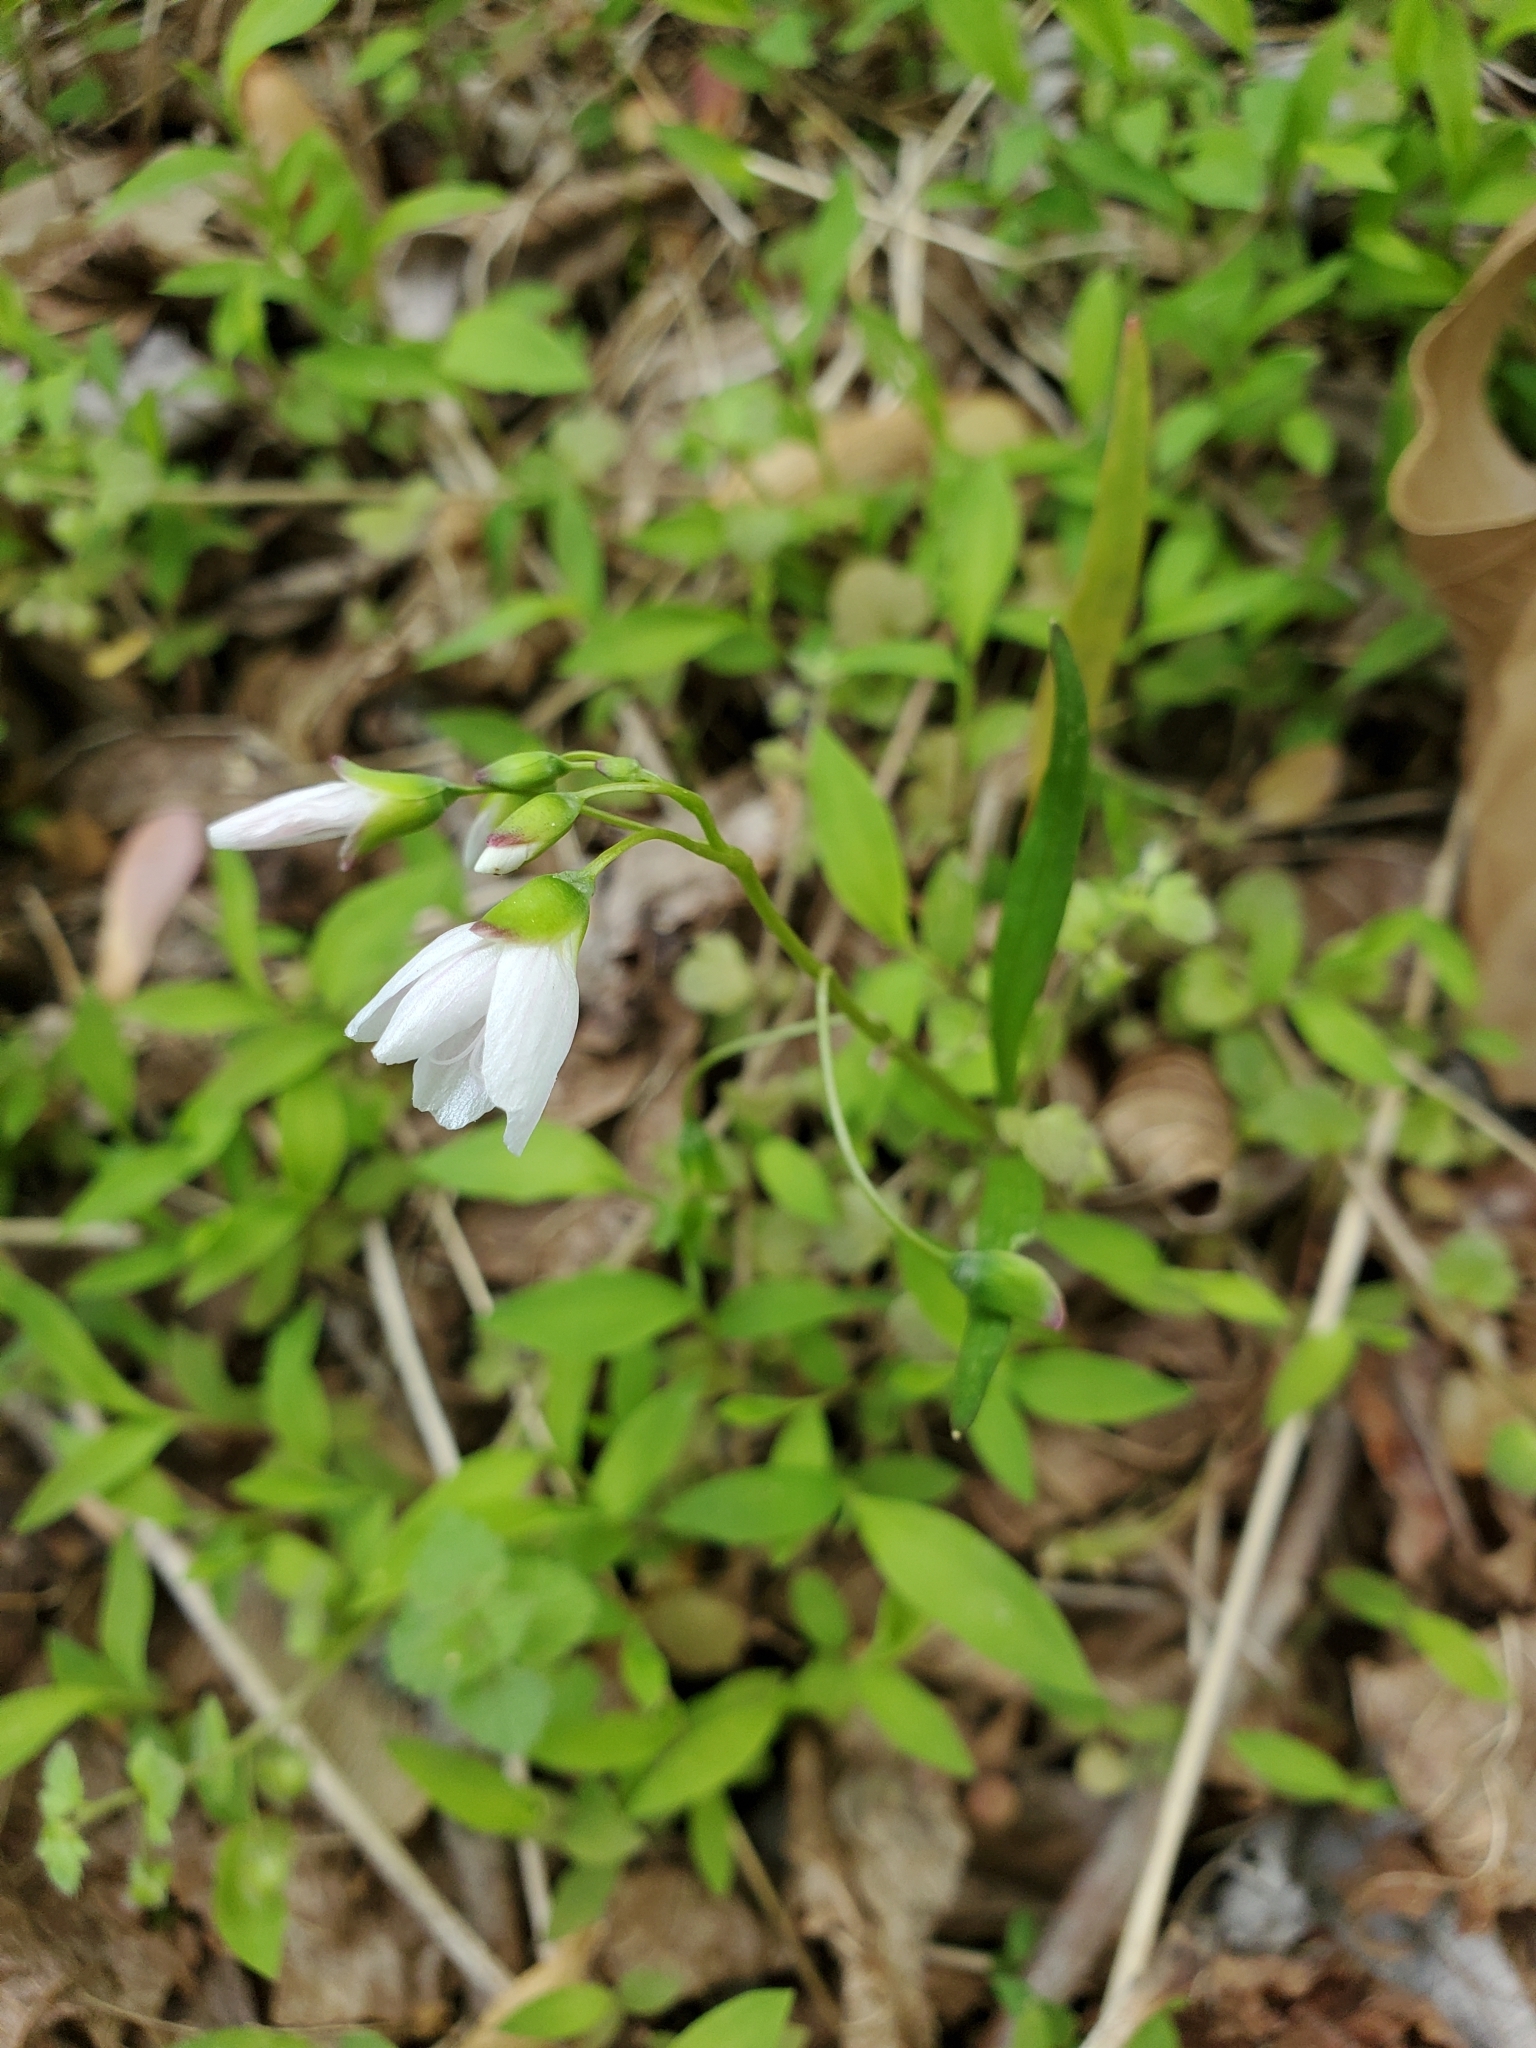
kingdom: Plantae
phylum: Tracheophyta
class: Magnoliopsida
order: Caryophyllales
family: Montiaceae
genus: Claytonia
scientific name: Claytonia virginica
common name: Virginia springbeauty
